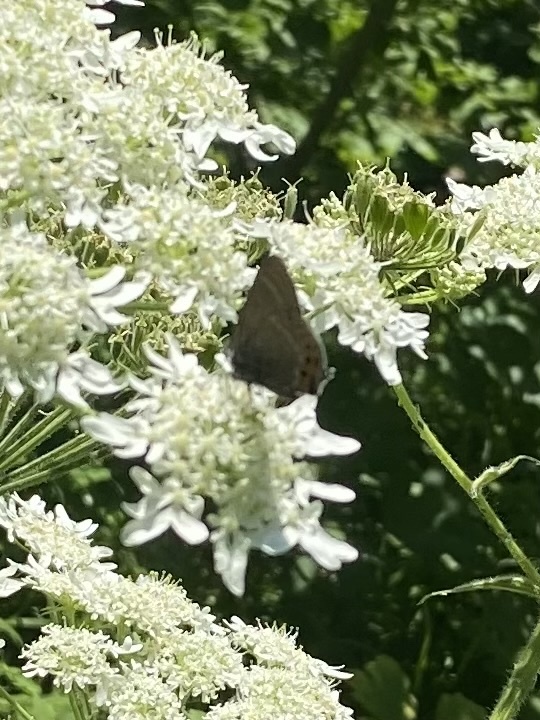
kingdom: Animalia
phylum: Arthropoda
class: Insecta
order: Lepidoptera
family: Lycaenidae
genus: Fixsenia
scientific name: Fixsenia pruni
